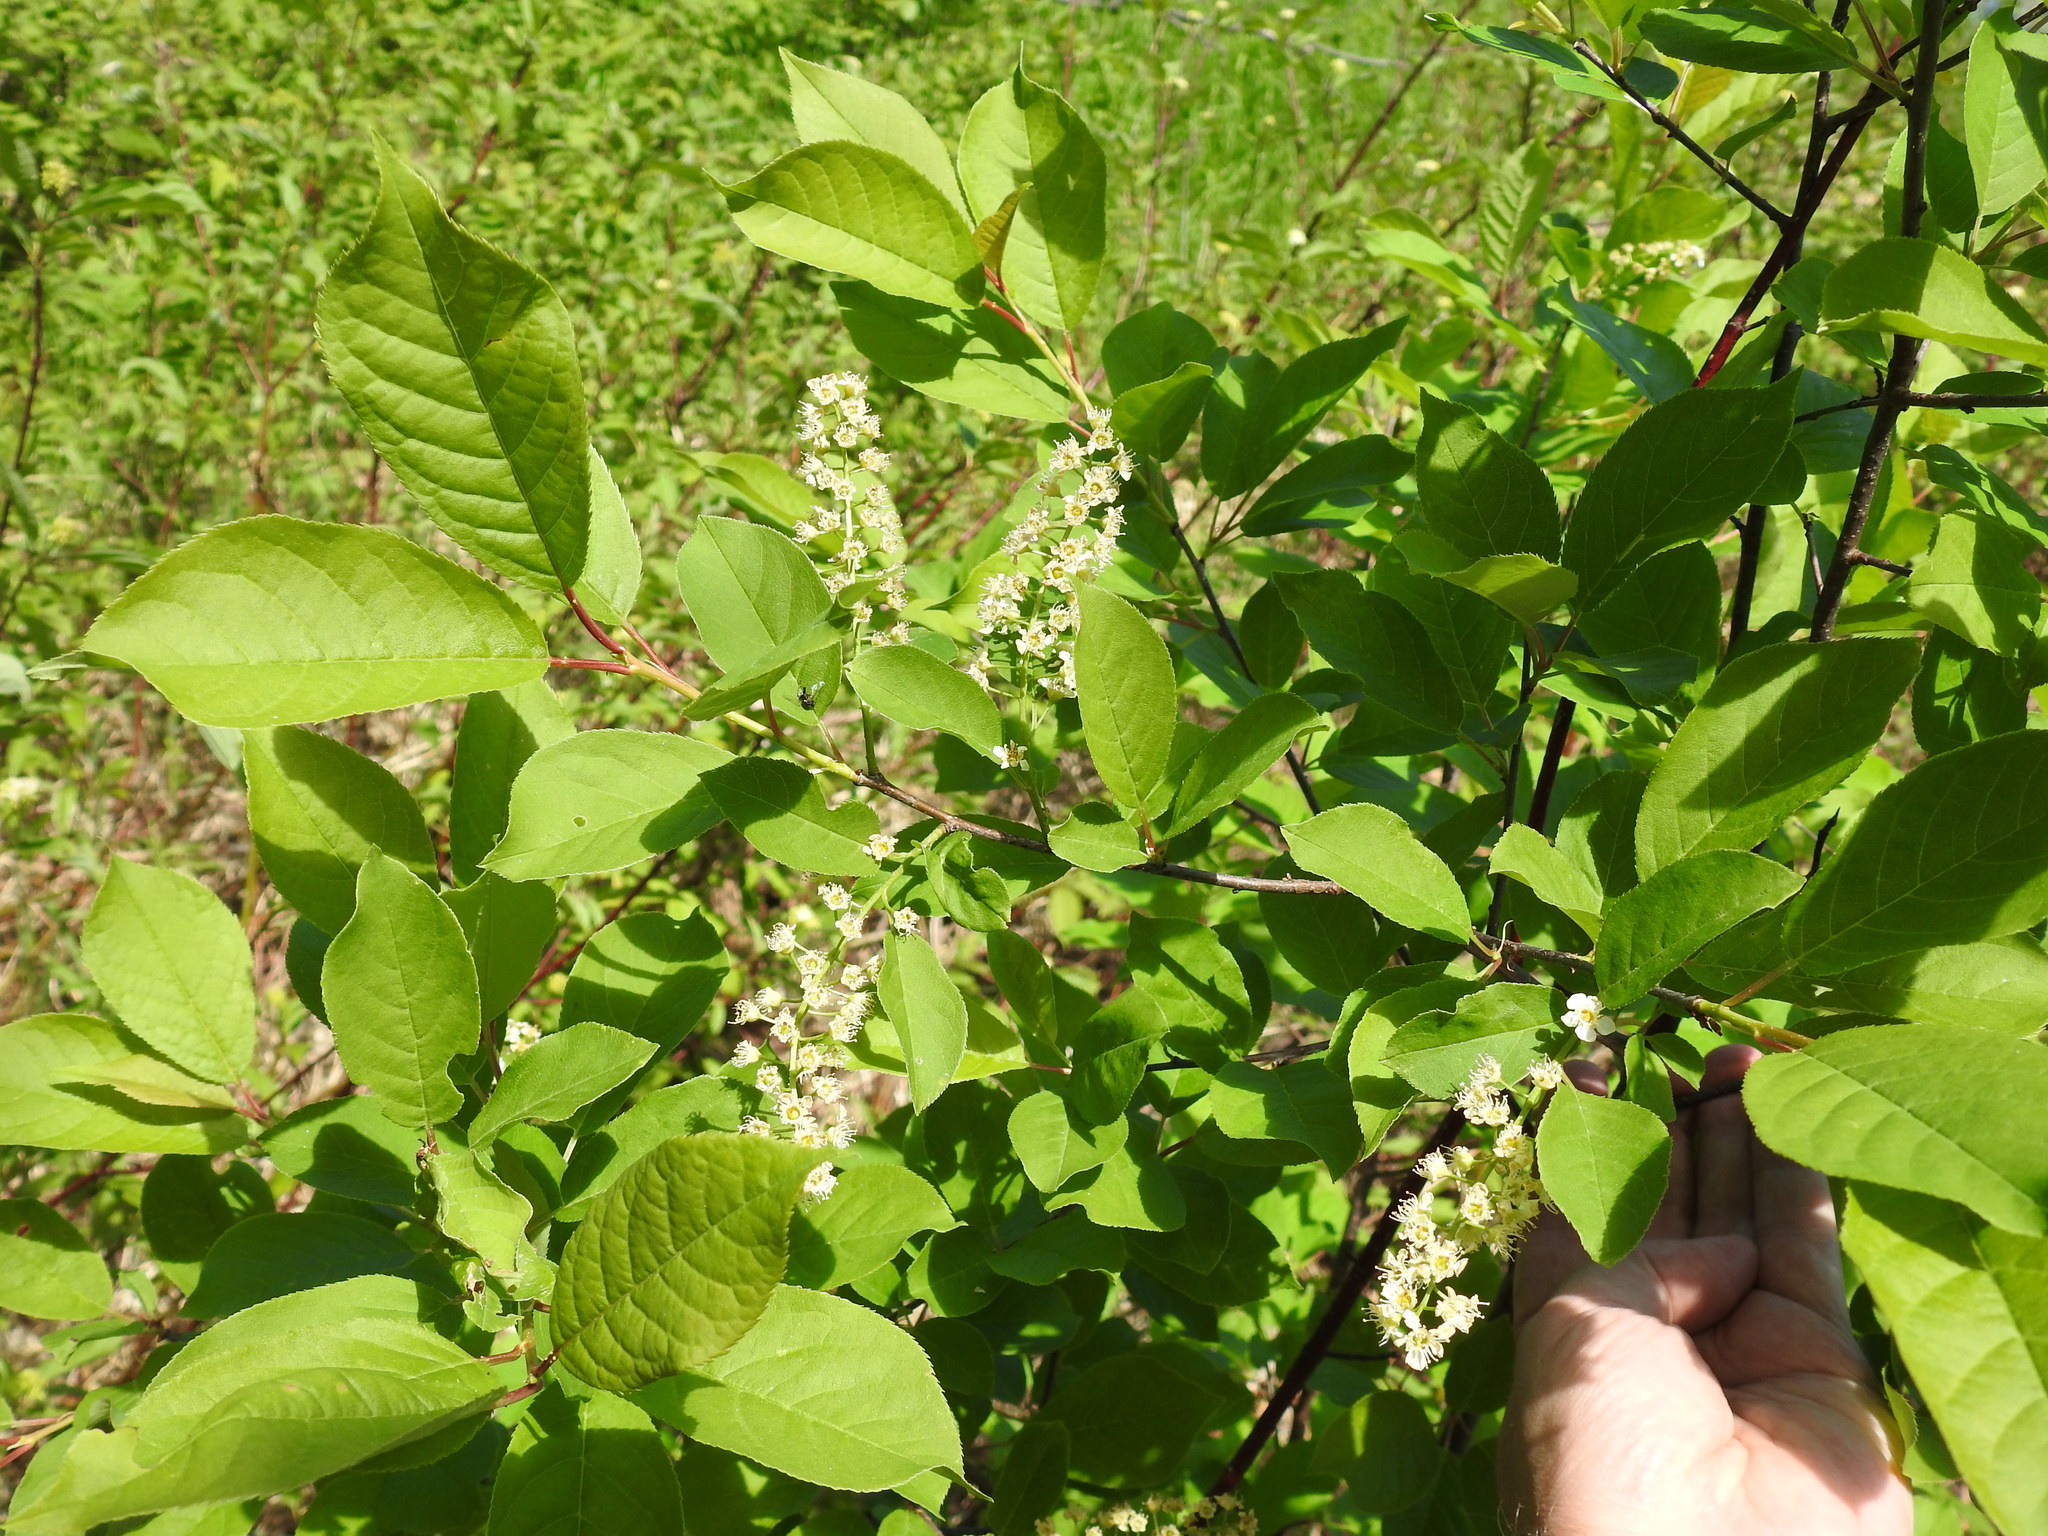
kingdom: Plantae
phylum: Tracheophyta
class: Magnoliopsida
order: Rosales
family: Rosaceae
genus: Prunus
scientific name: Prunus virginiana
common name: Chokecherry
